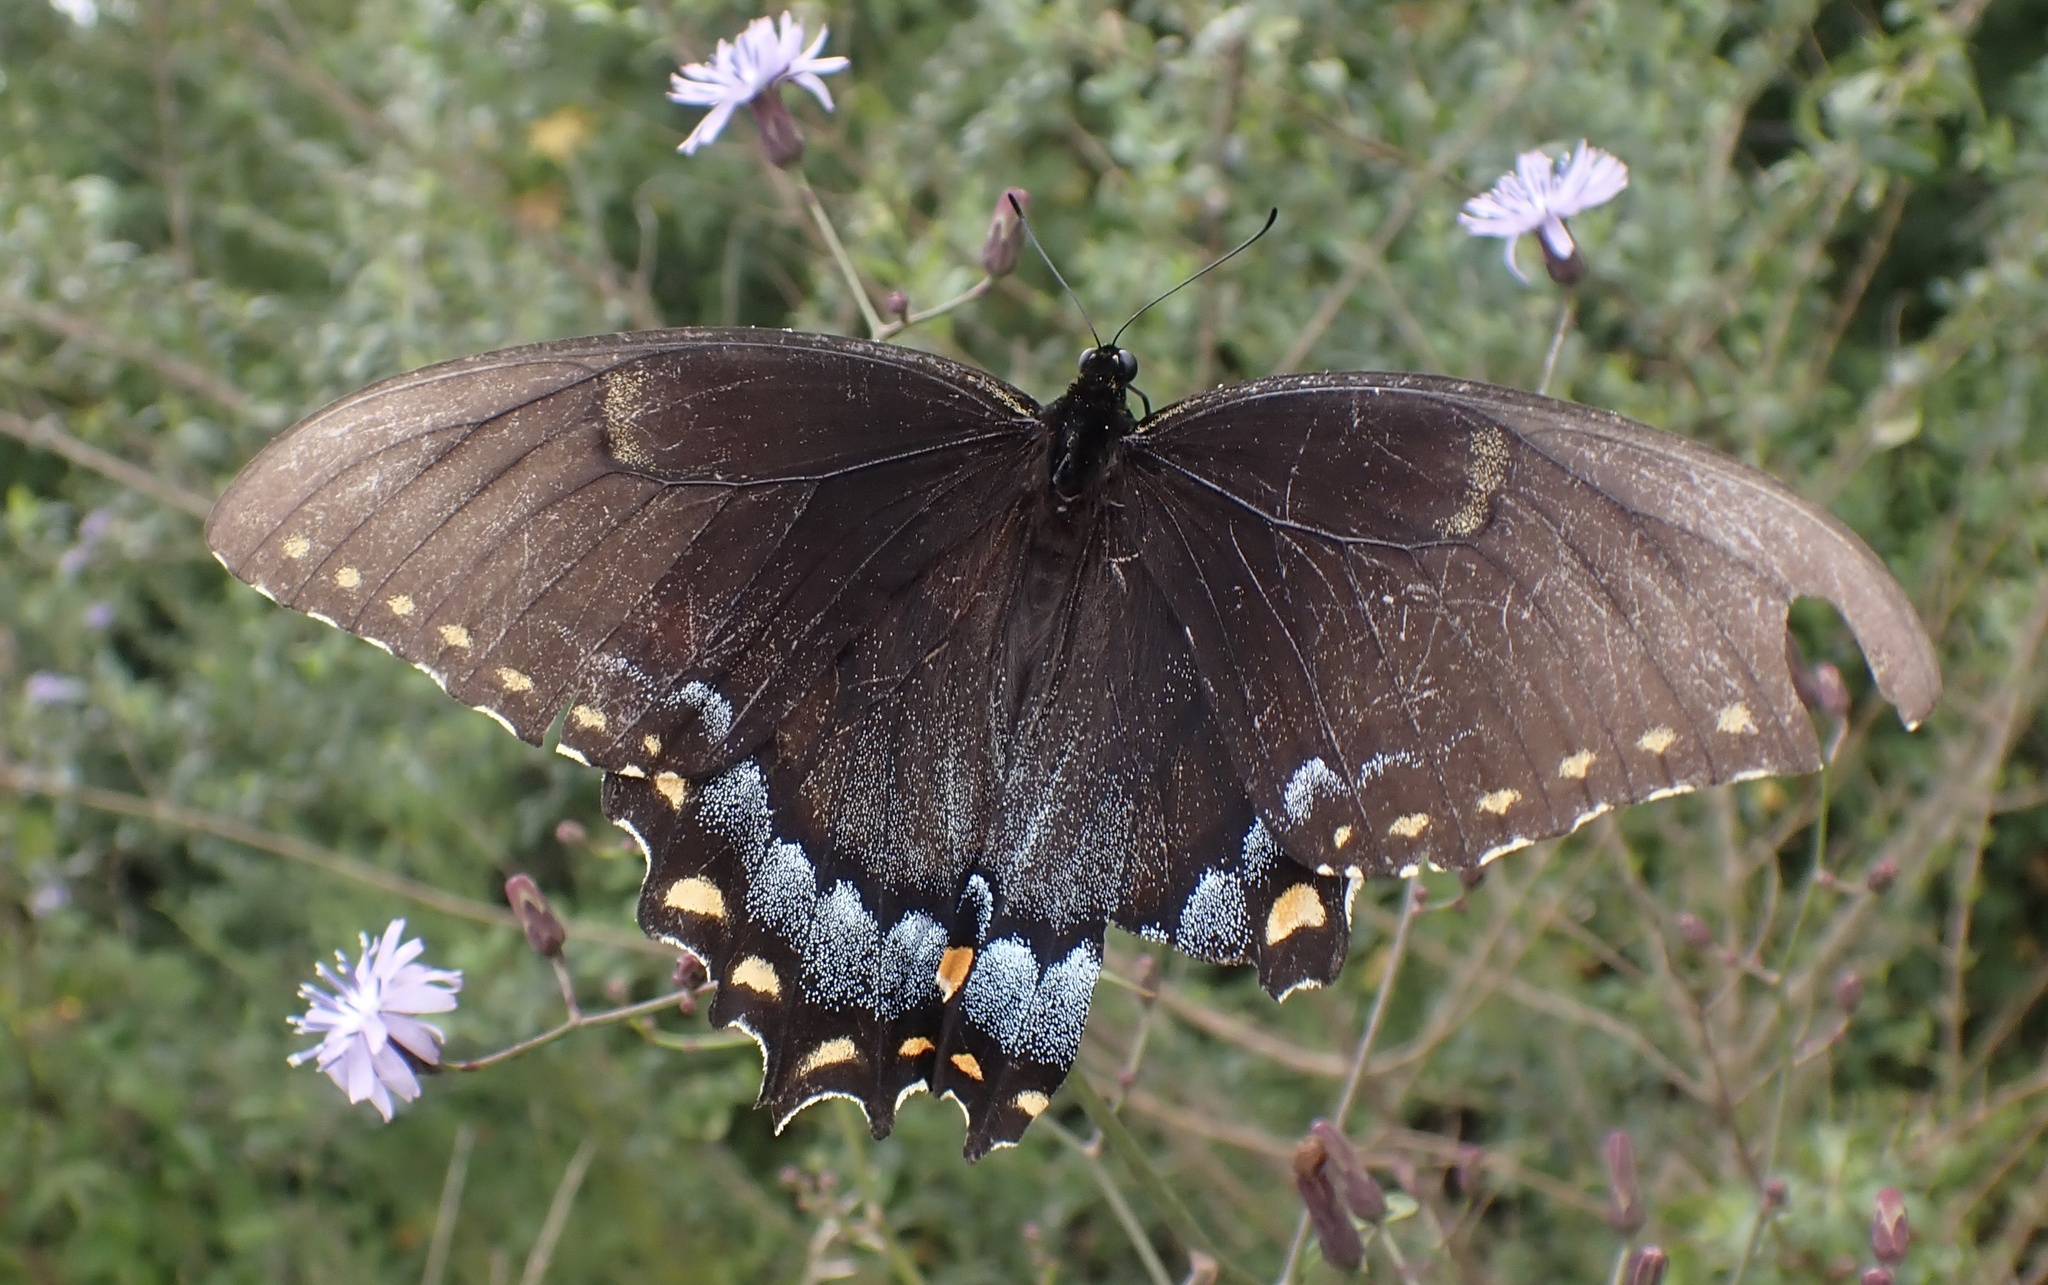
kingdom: Animalia
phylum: Arthropoda
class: Insecta
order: Lepidoptera
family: Papilionidae
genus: Papilio
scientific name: Papilio glaucus
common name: Tiger swallowtail
